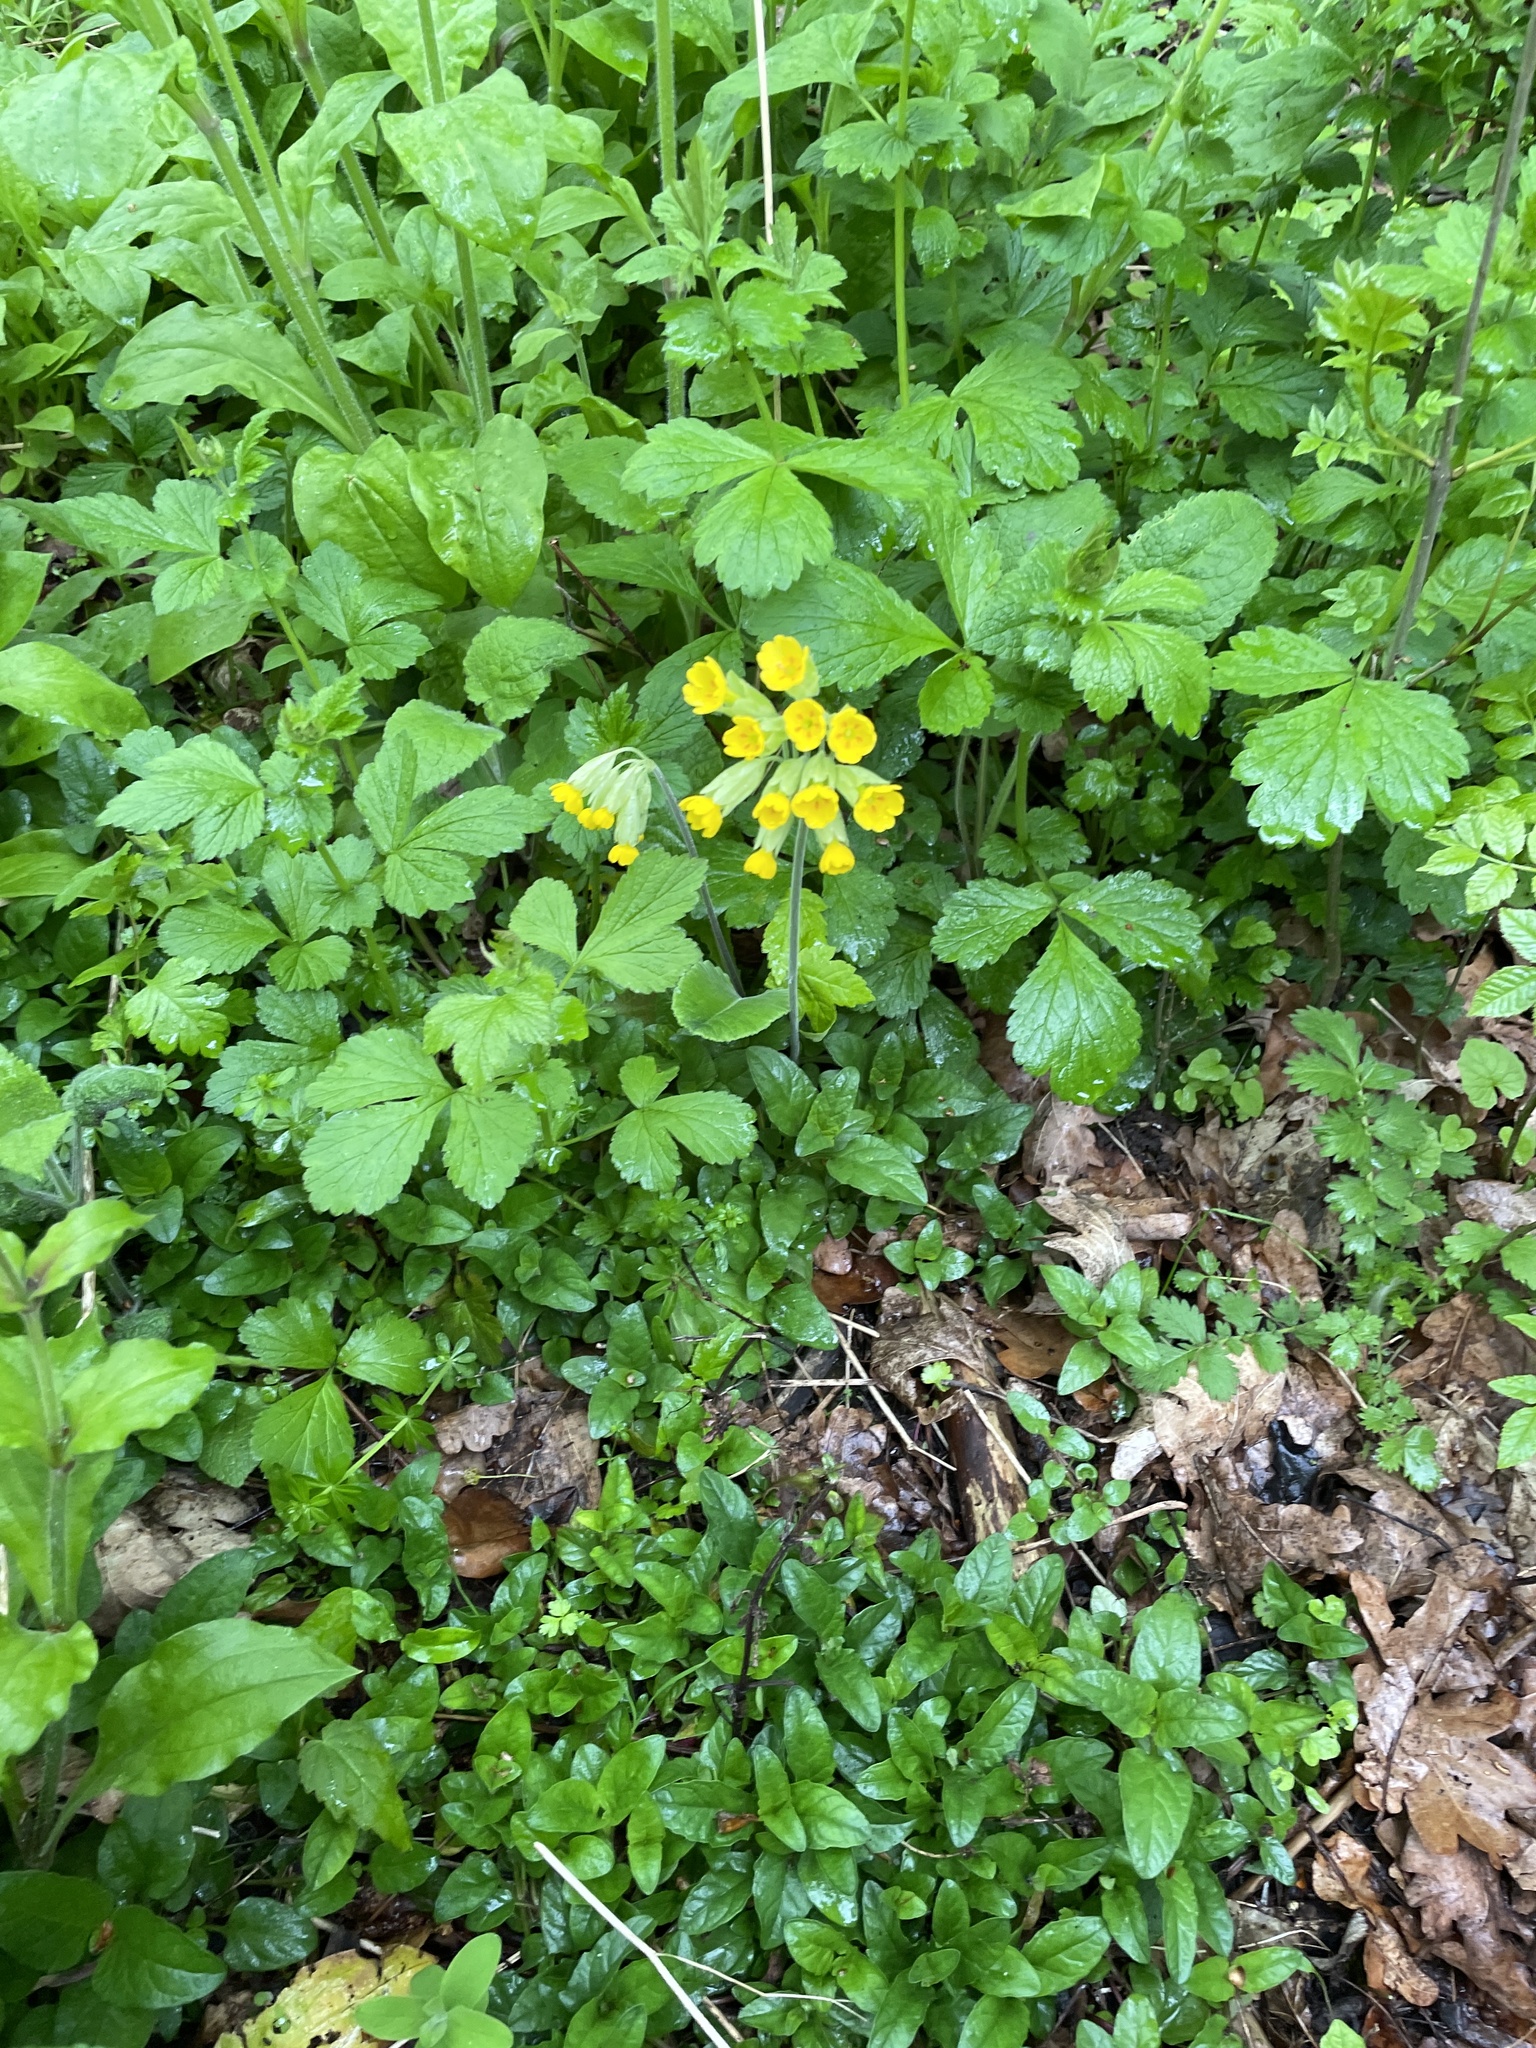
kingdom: Plantae
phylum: Tracheophyta
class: Magnoliopsida
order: Ericales
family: Primulaceae
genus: Primula
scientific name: Primula veris
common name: Cowslip
